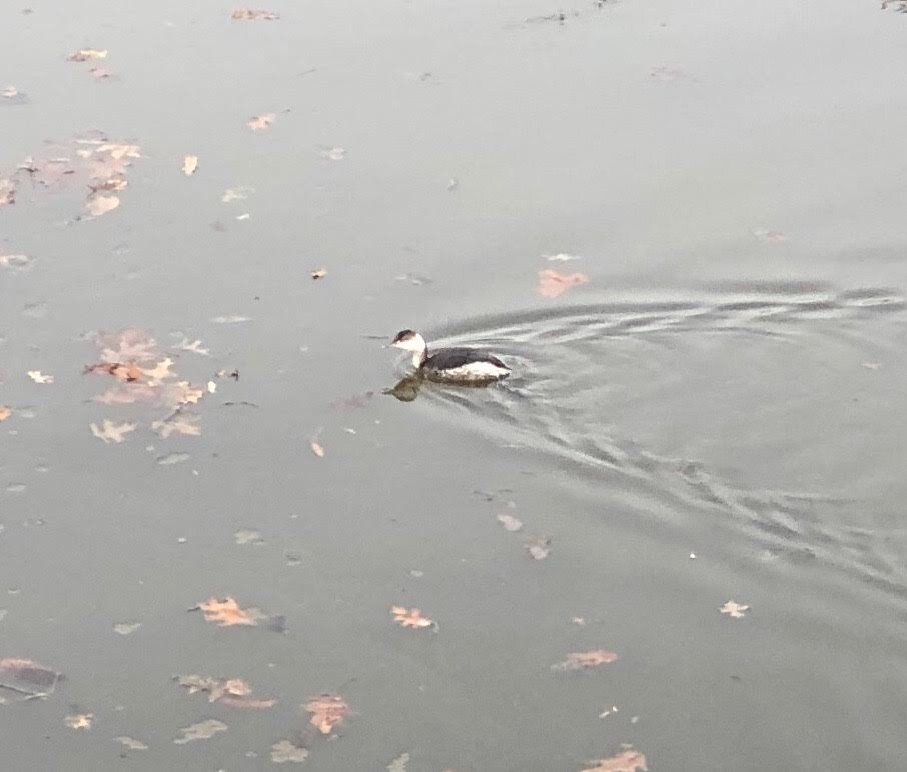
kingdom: Animalia
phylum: Chordata
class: Aves
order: Podicipediformes
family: Podicipedidae
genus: Podiceps
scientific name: Podiceps auritus
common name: Horned grebe
